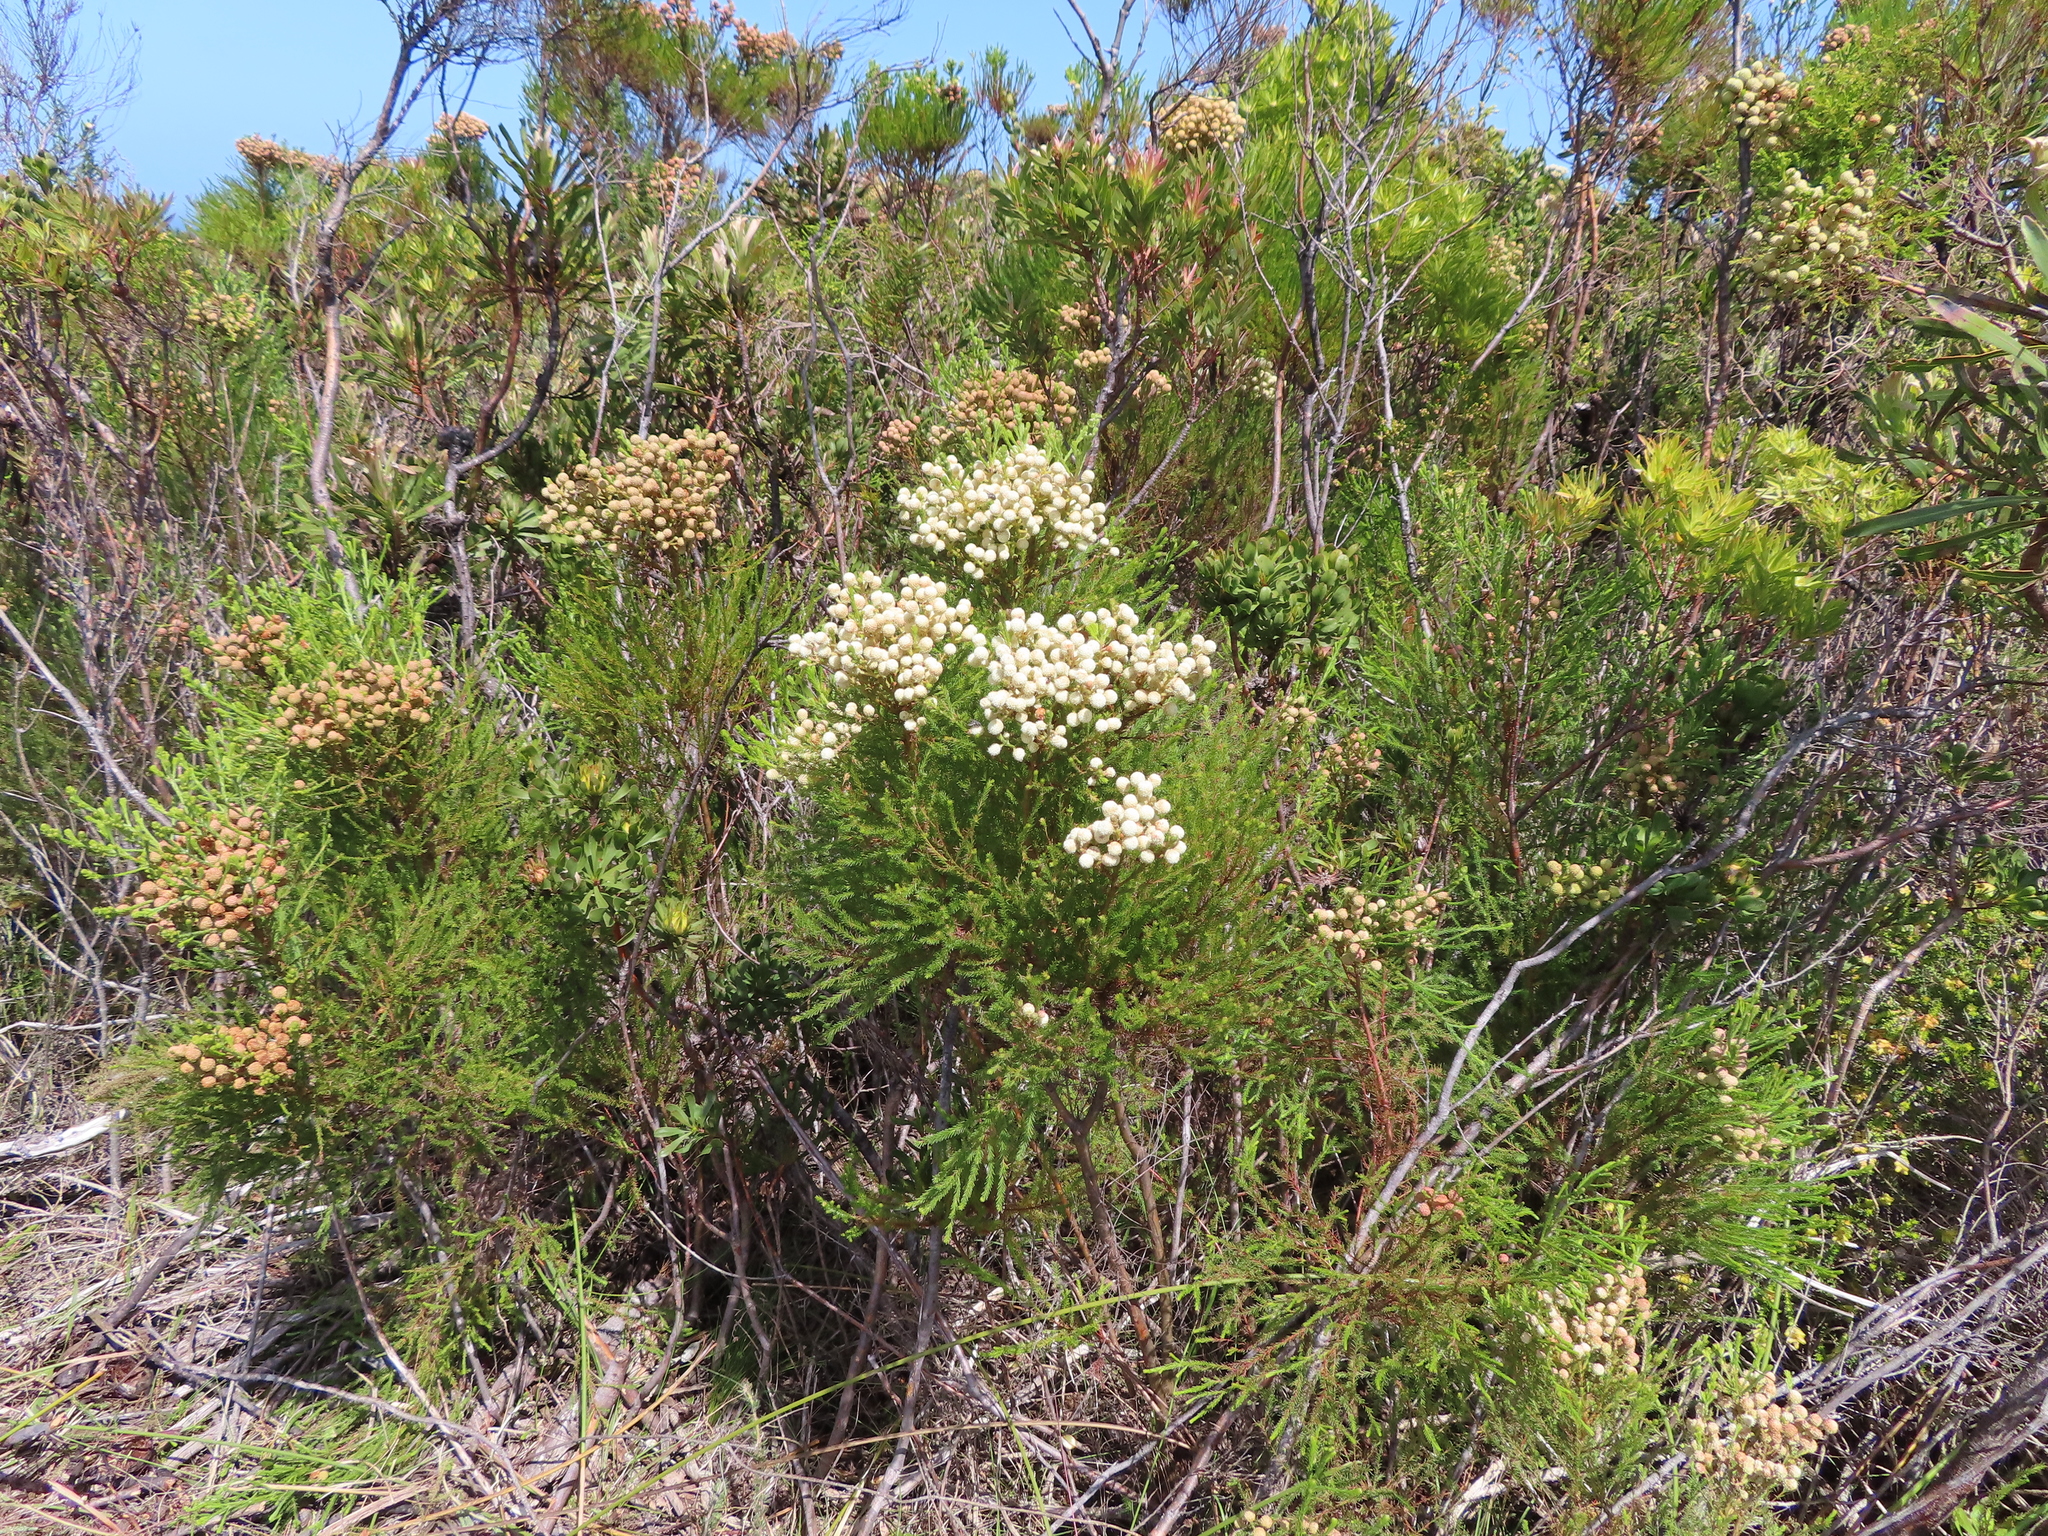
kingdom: Plantae
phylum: Tracheophyta
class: Magnoliopsida
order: Bruniales
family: Bruniaceae
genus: Berzelia
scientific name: Berzelia lanuginosa
